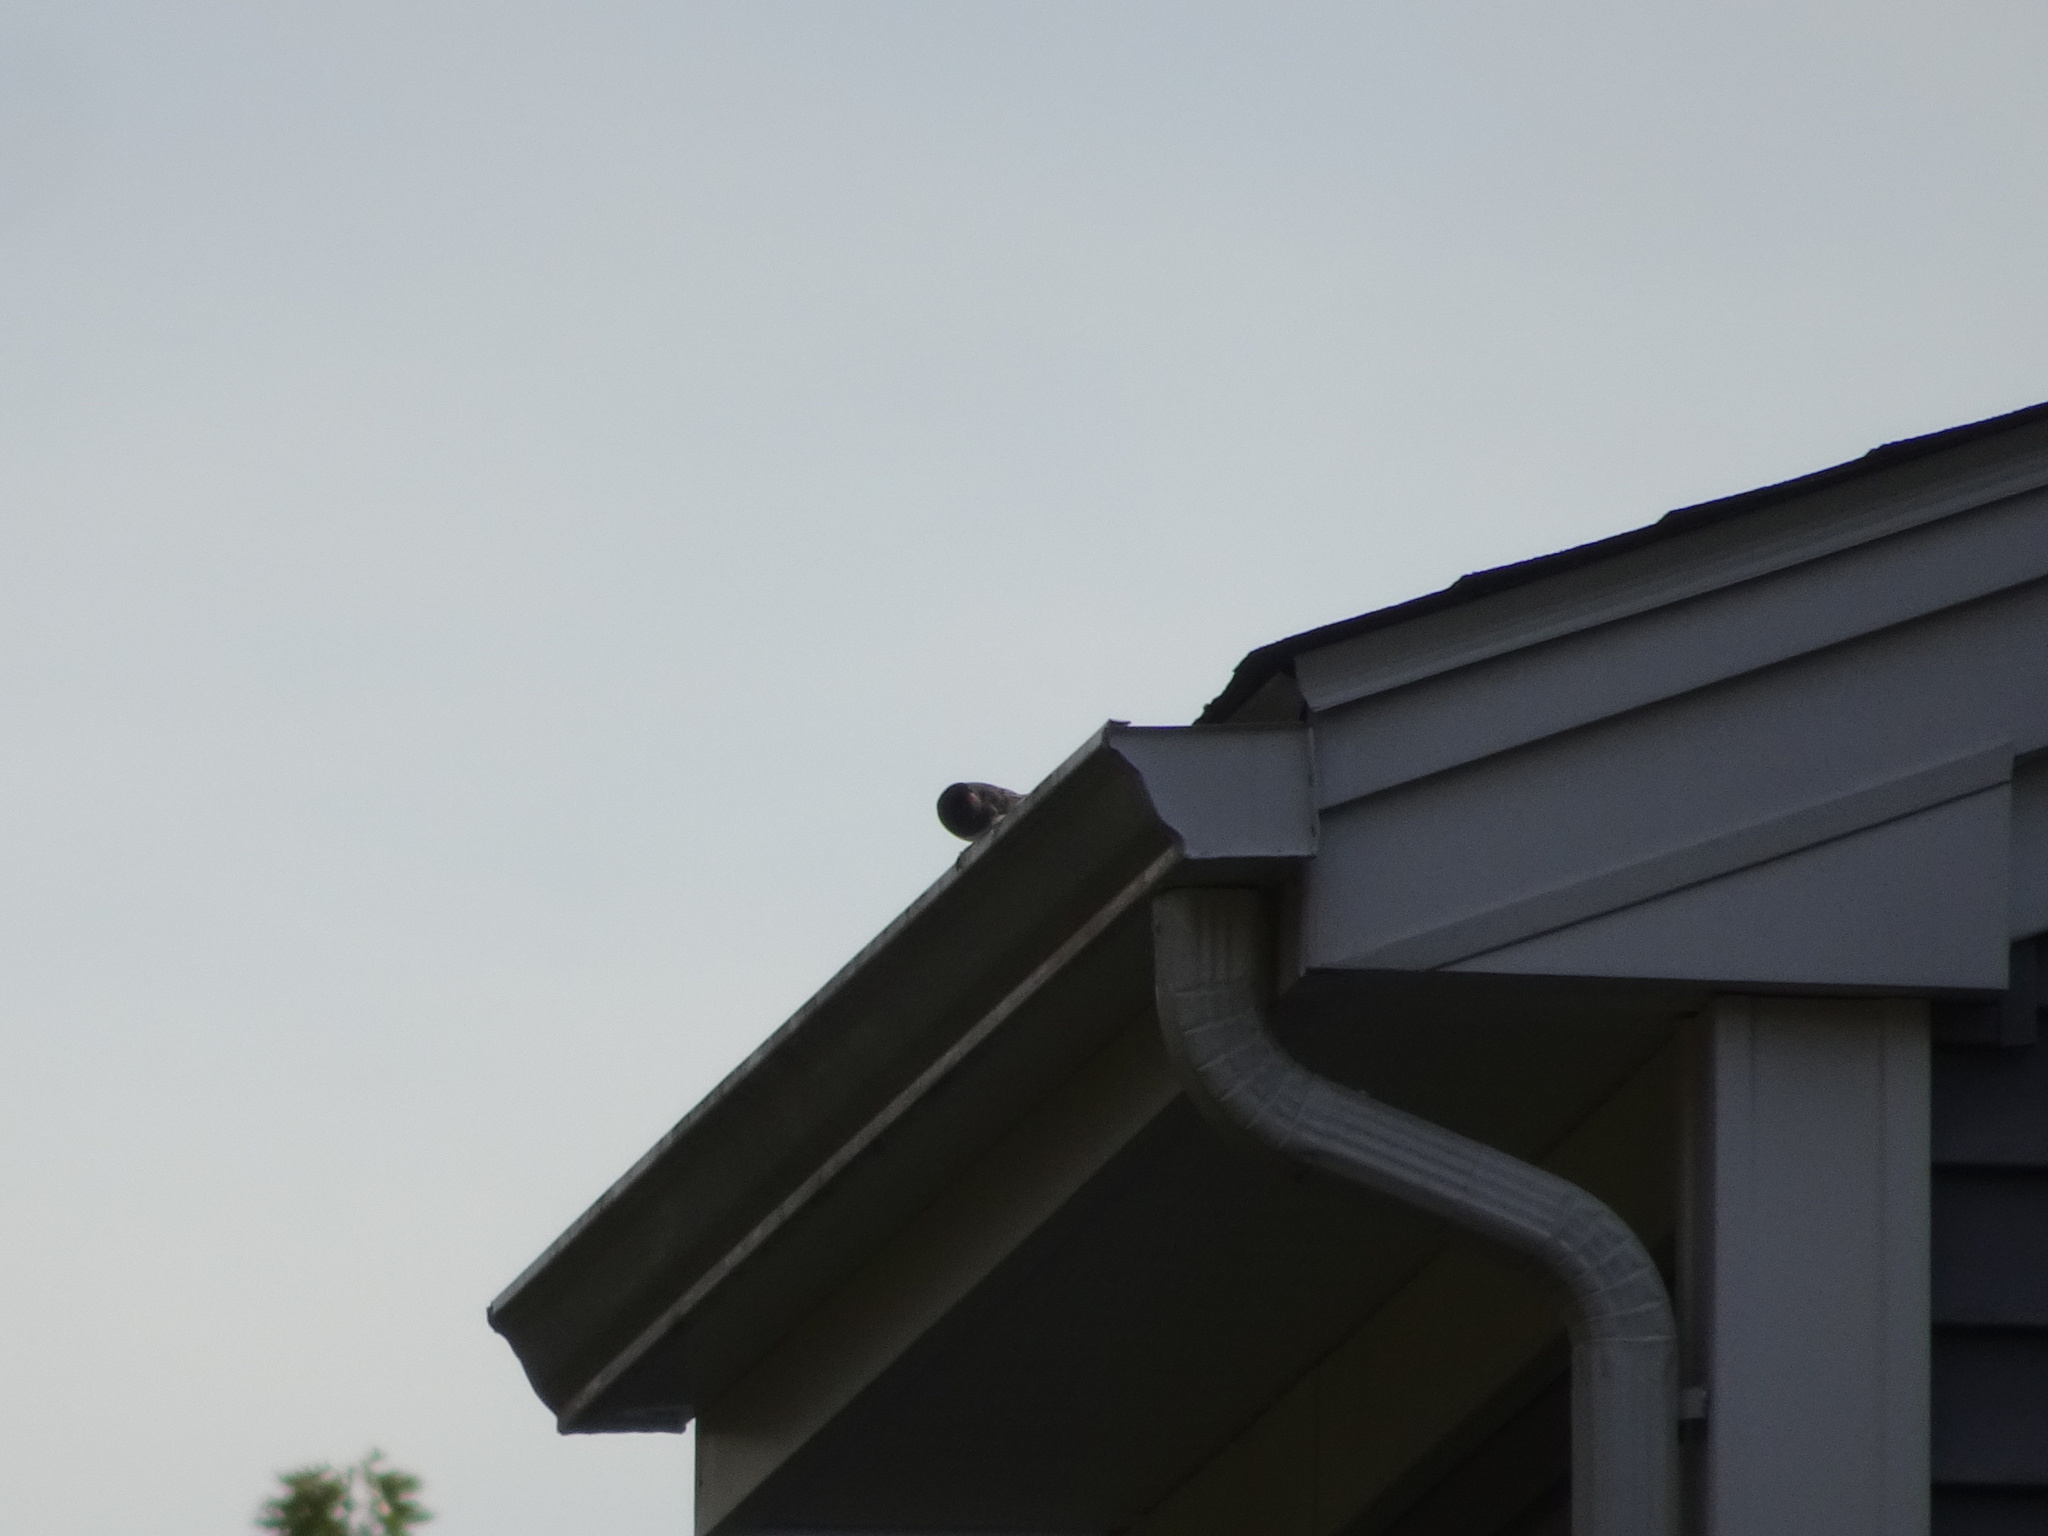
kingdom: Animalia
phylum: Chordata
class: Aves
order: Passeriformes
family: Passerellidae
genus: Junco
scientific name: Junco hyemalis
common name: Dark-eyed junco
